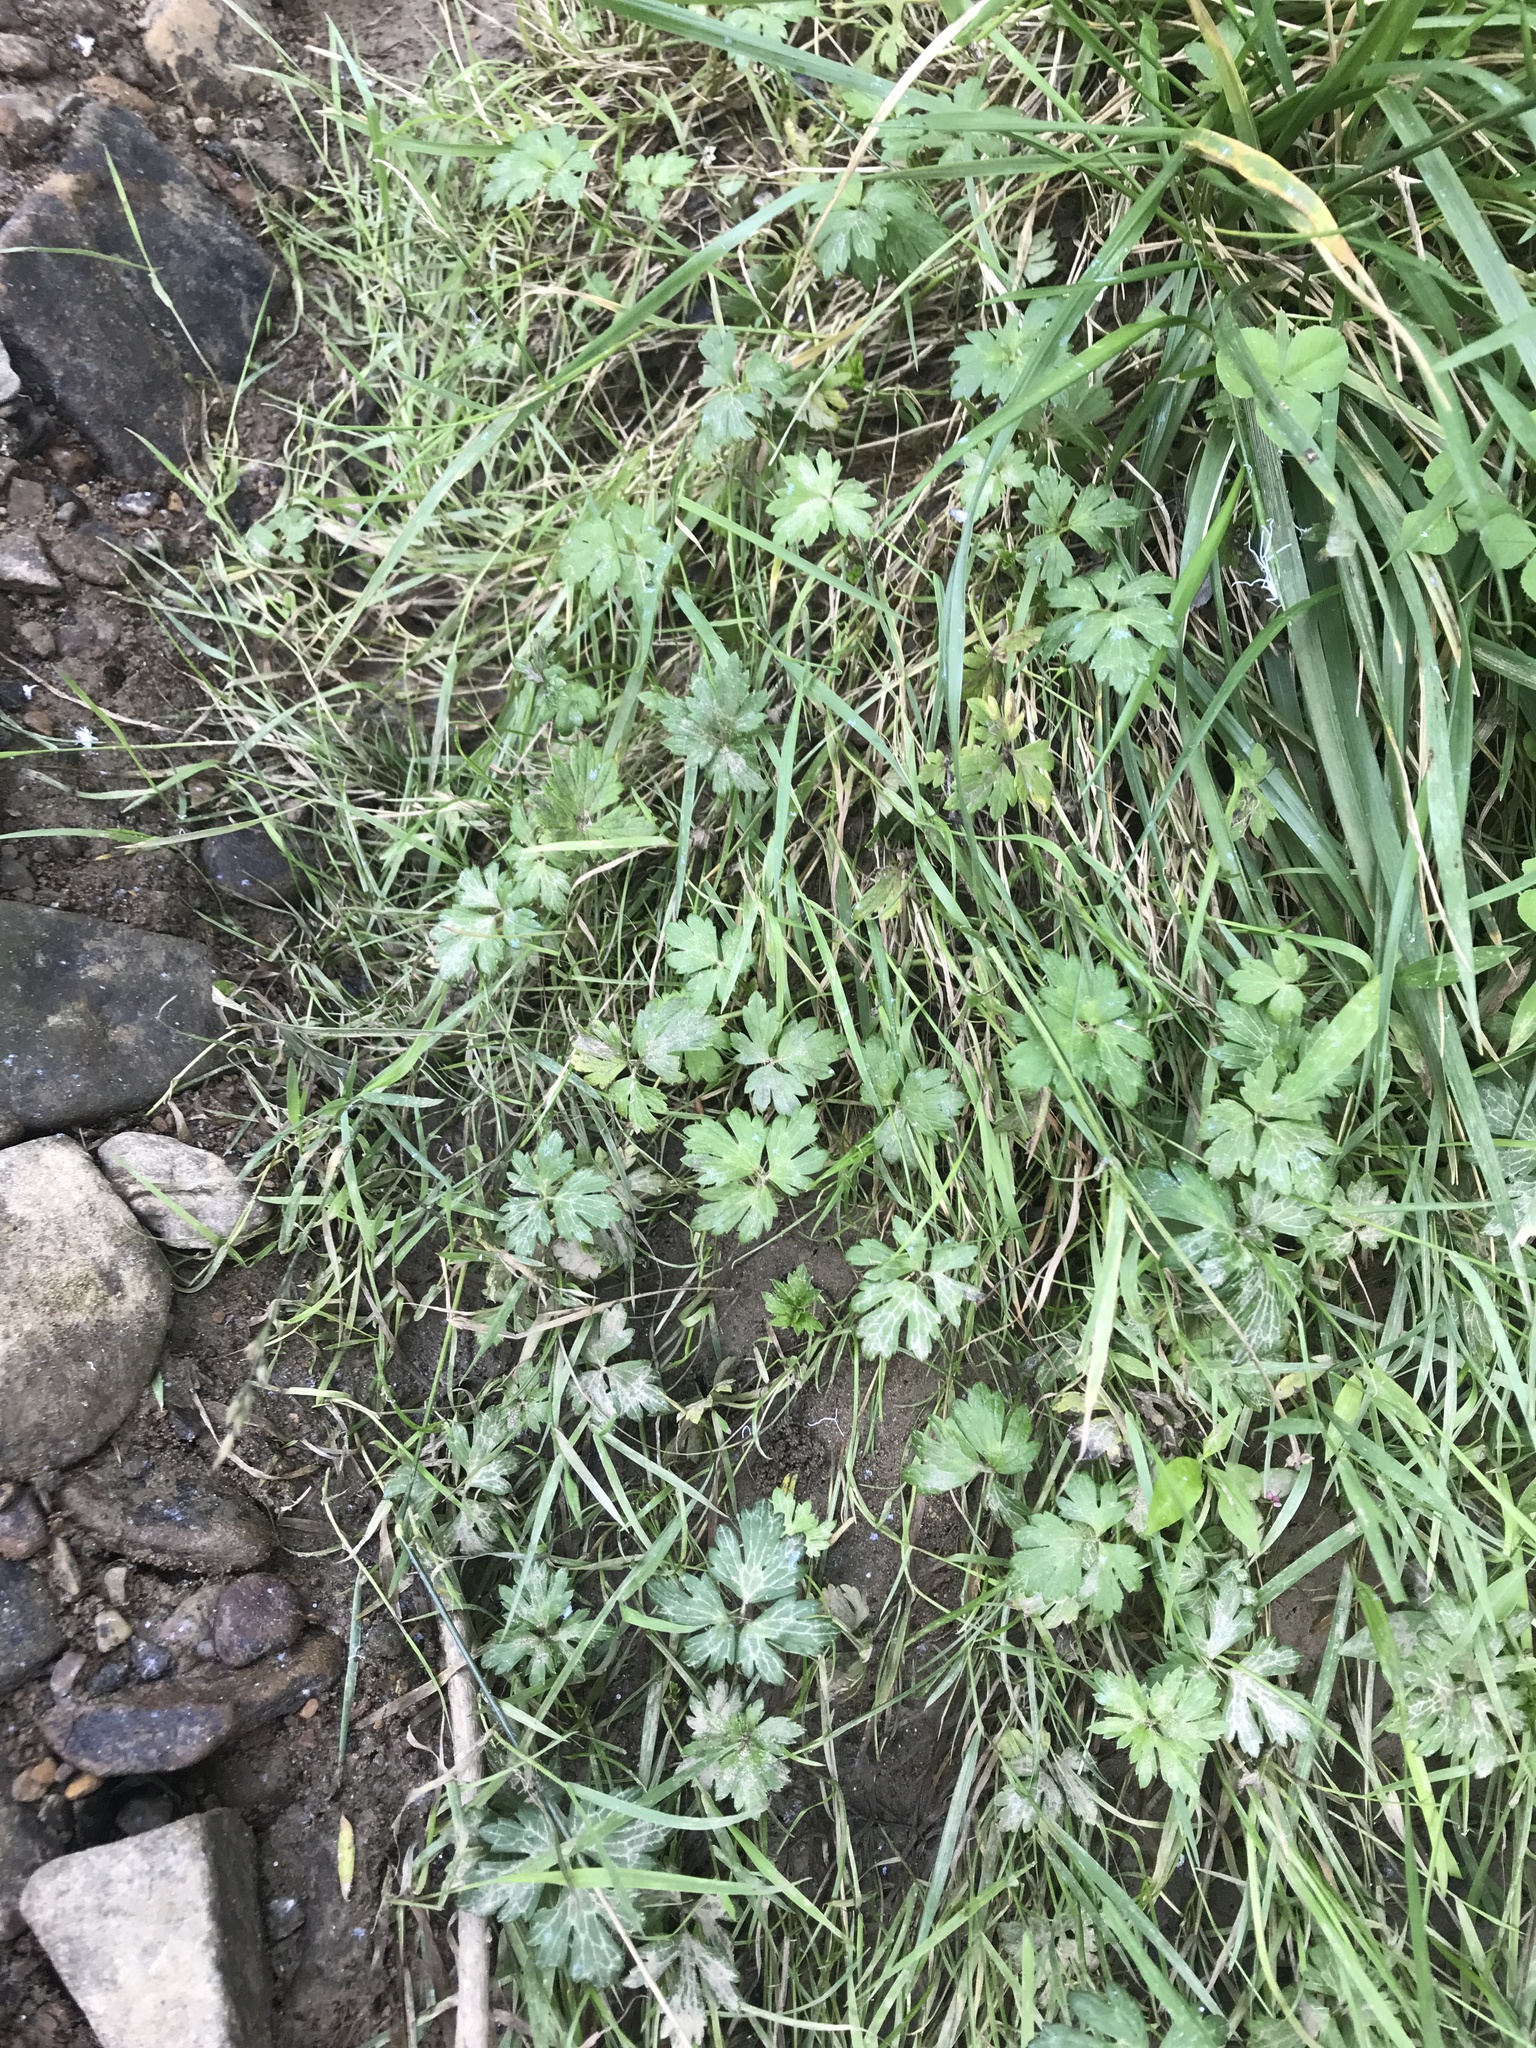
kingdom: Plantae
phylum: Tracheophyta
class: Magnoliopsida
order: Ranunculales
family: Ranunculaceae
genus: Ranunculus
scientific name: Ranunculus repens
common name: Creeping buttercup
